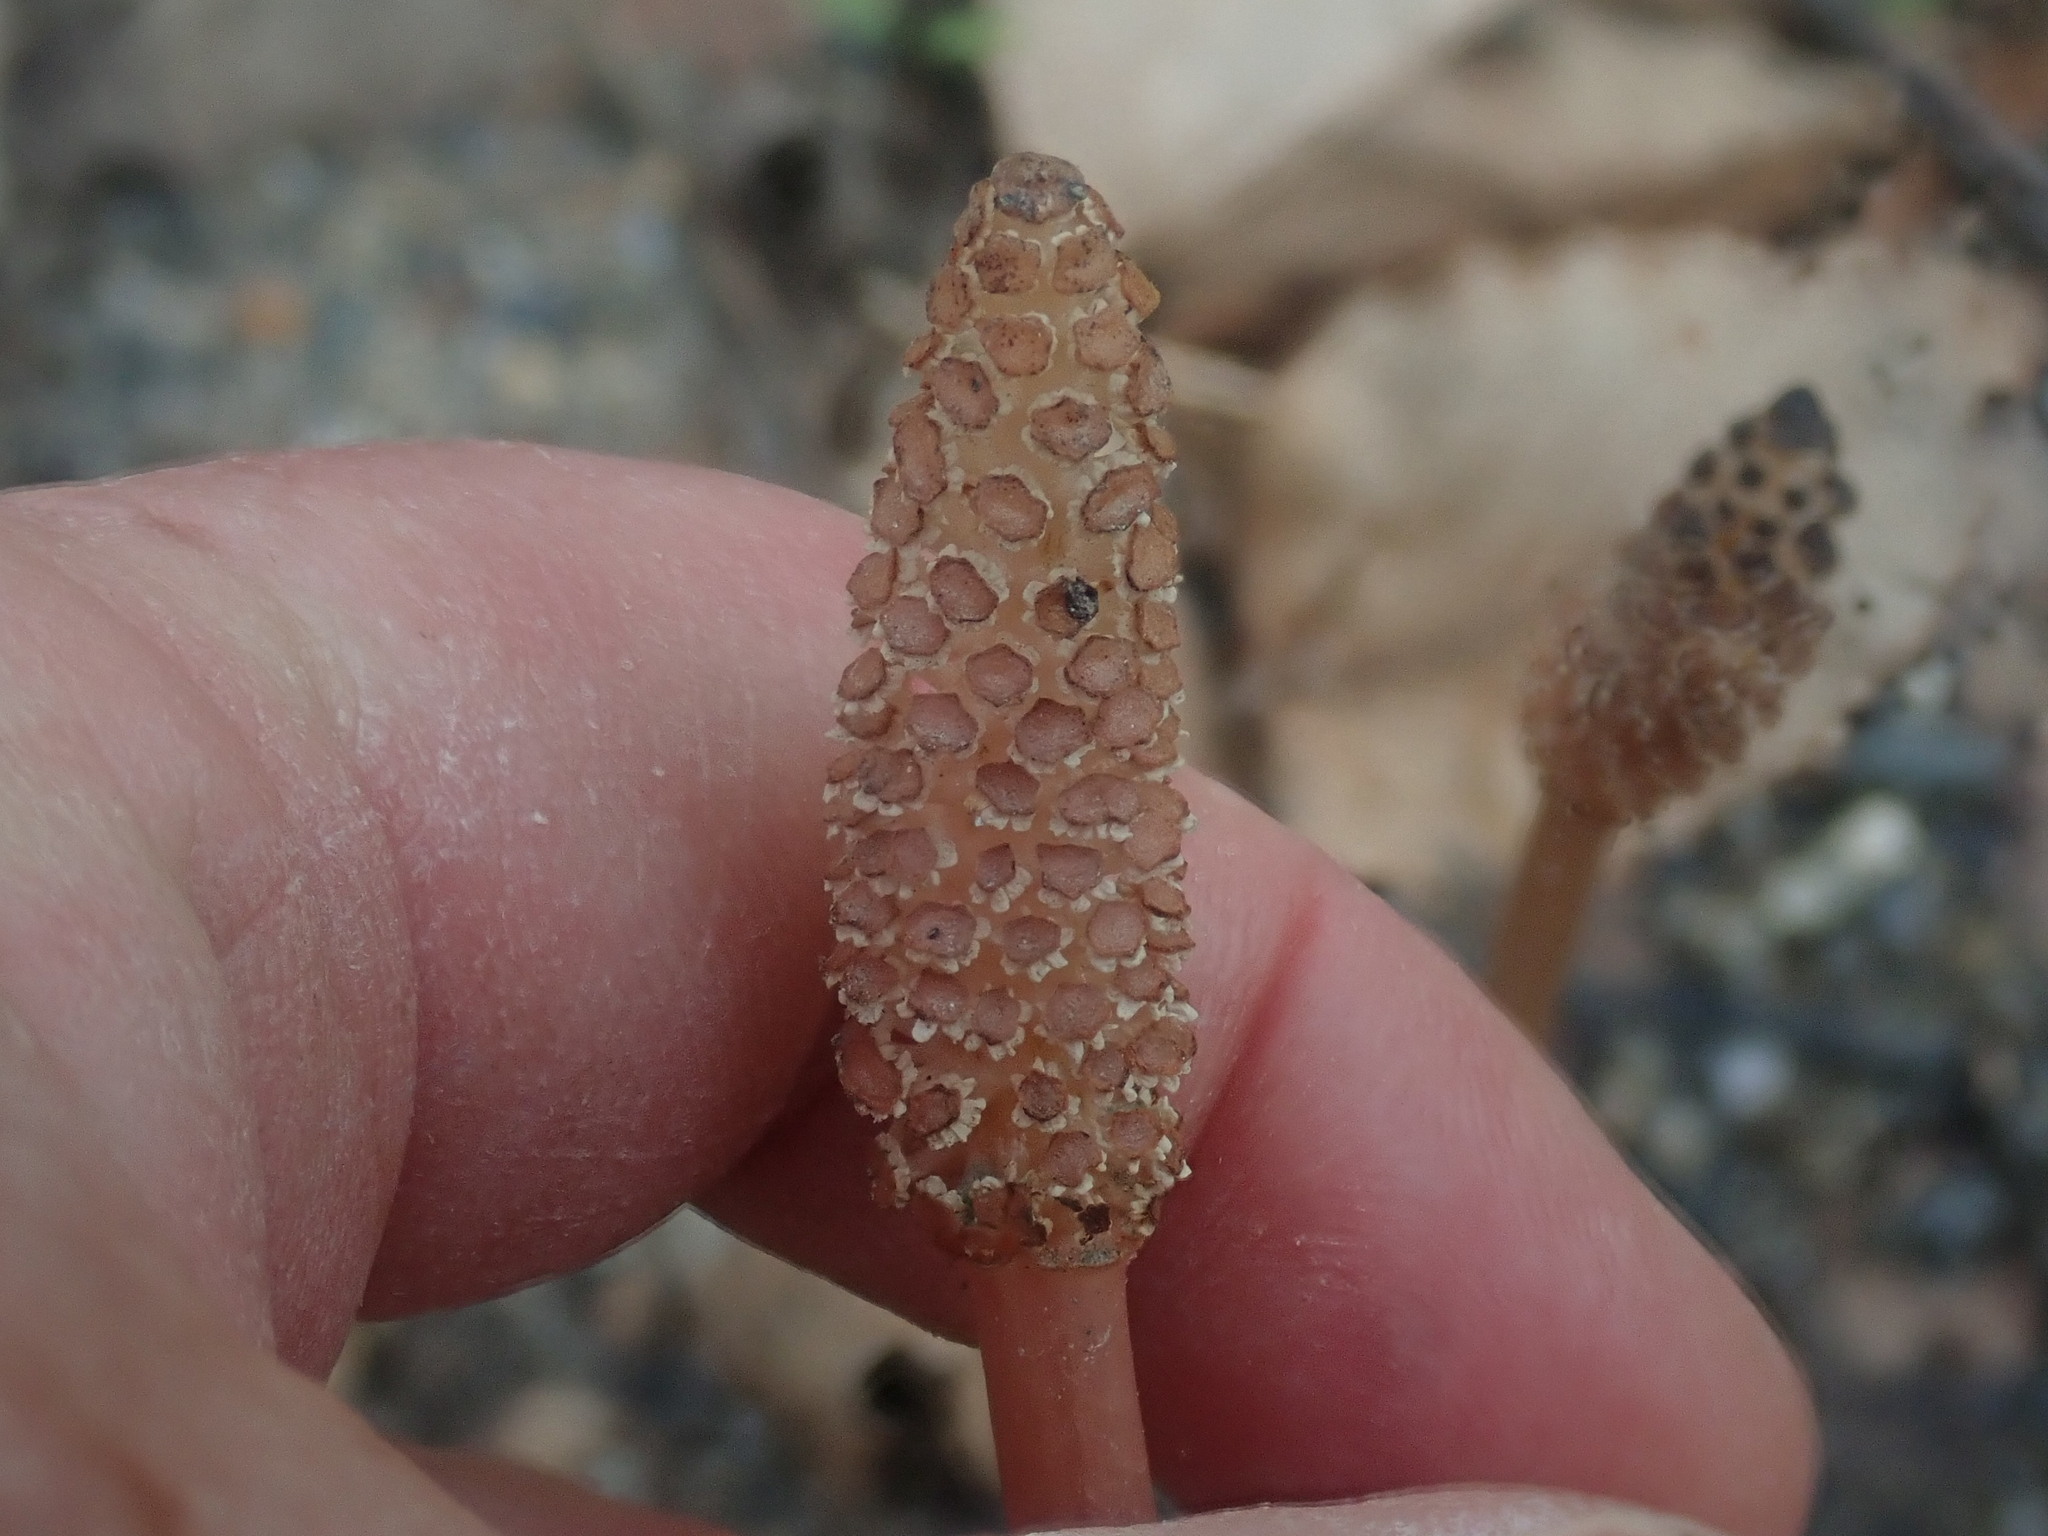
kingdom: Plantae
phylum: Tracheophyta
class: Polypodiopsida
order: Equisetales
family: Equisetaceae
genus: Equisetum
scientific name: Equisetum arvense
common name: Field horsetail
